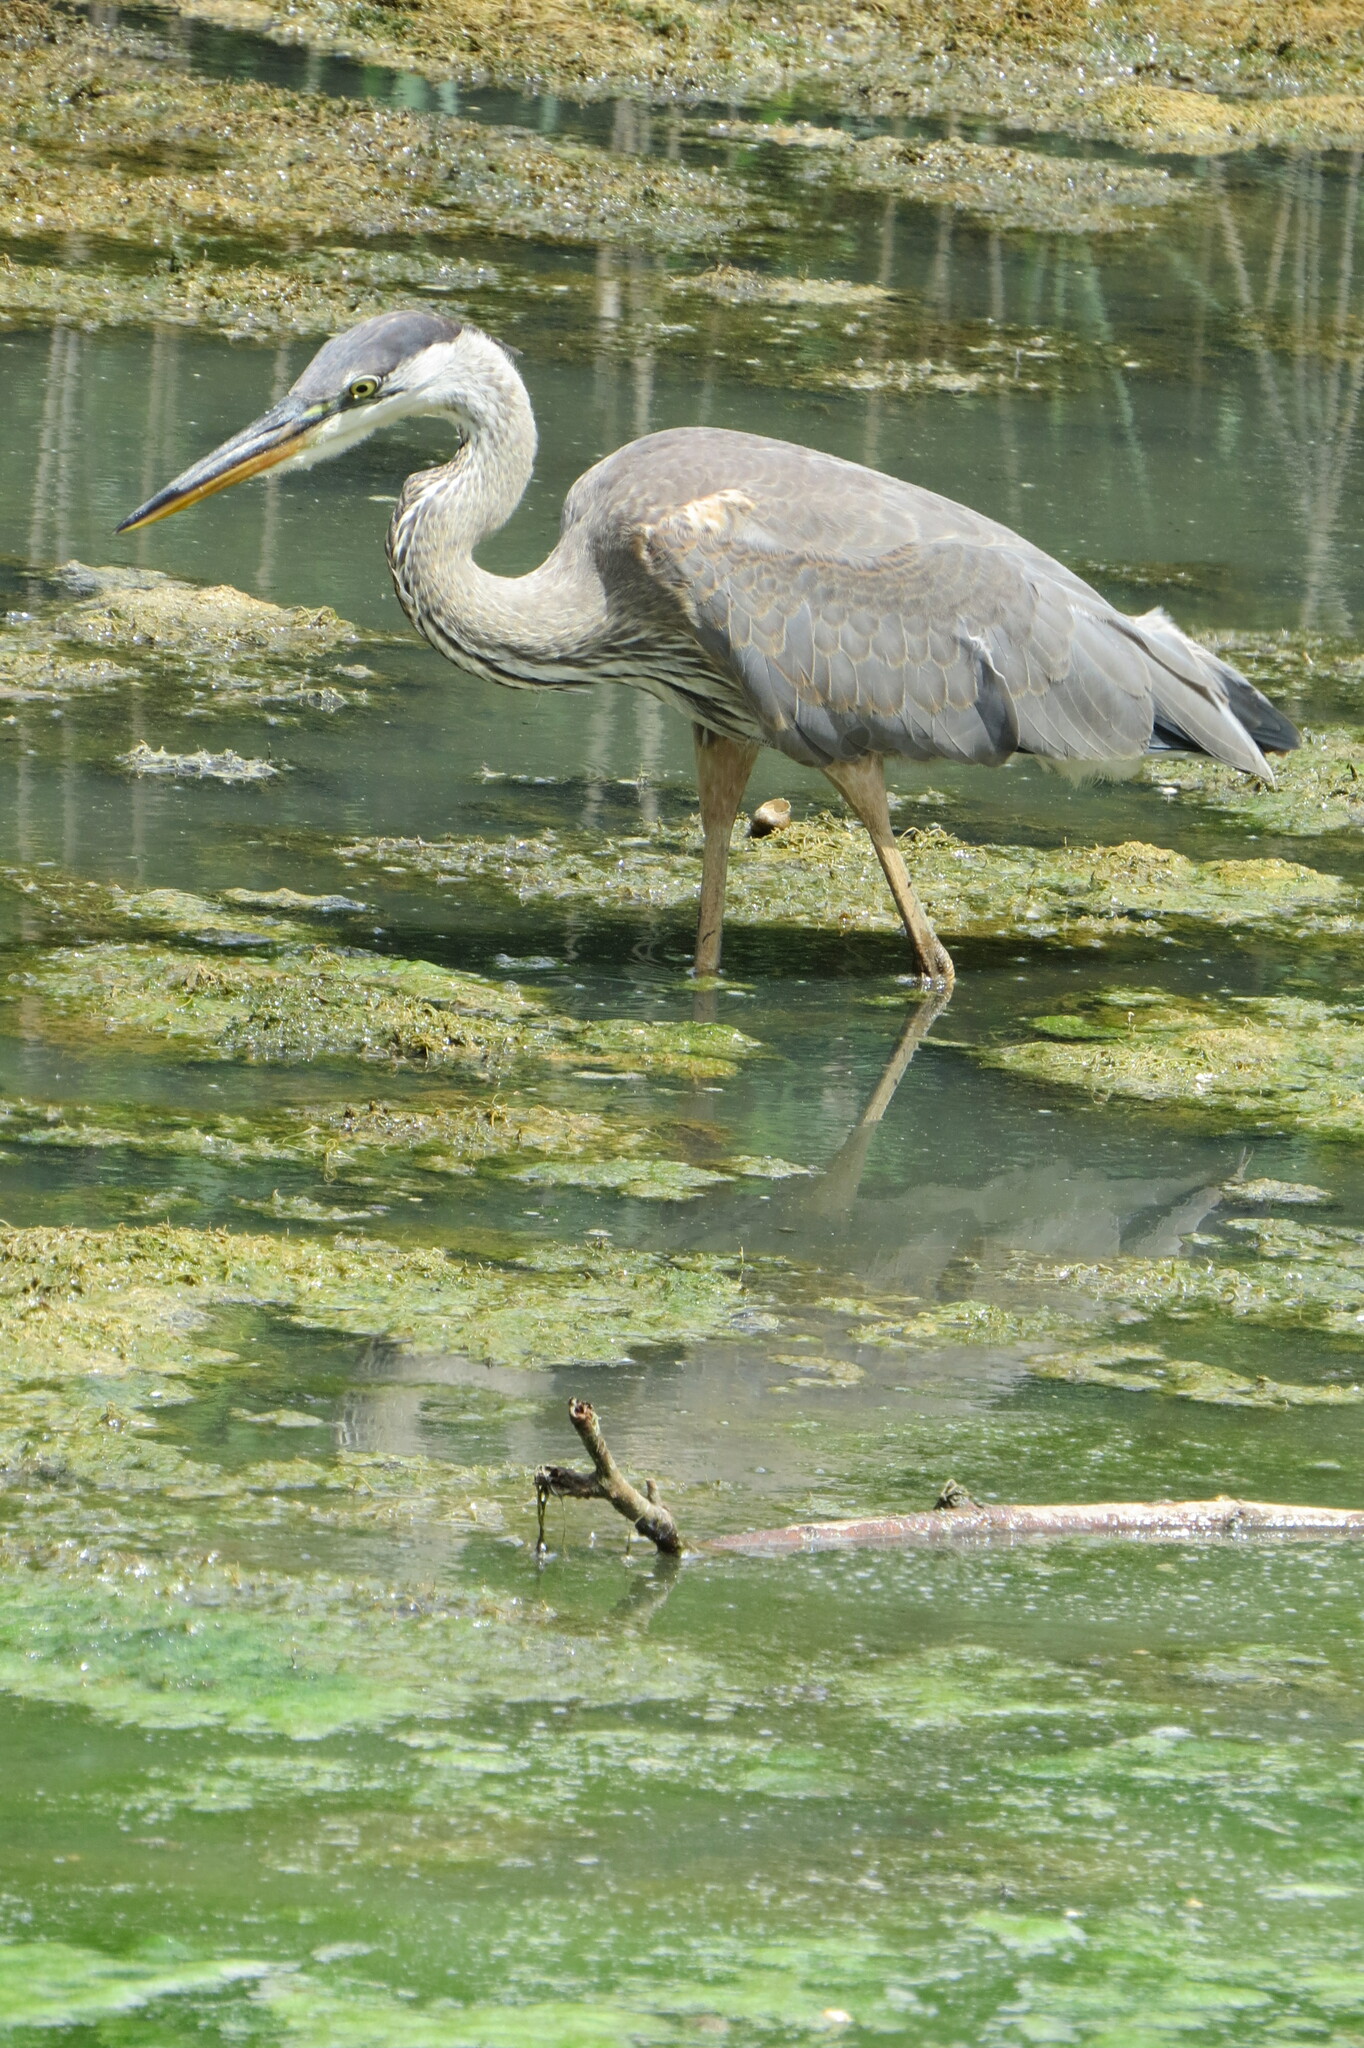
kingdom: Animalia
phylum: Chordata
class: Aves
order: Pelecaniformes
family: Ardeidae
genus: Ardea
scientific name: Ardea herodias
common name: Great blue heron
